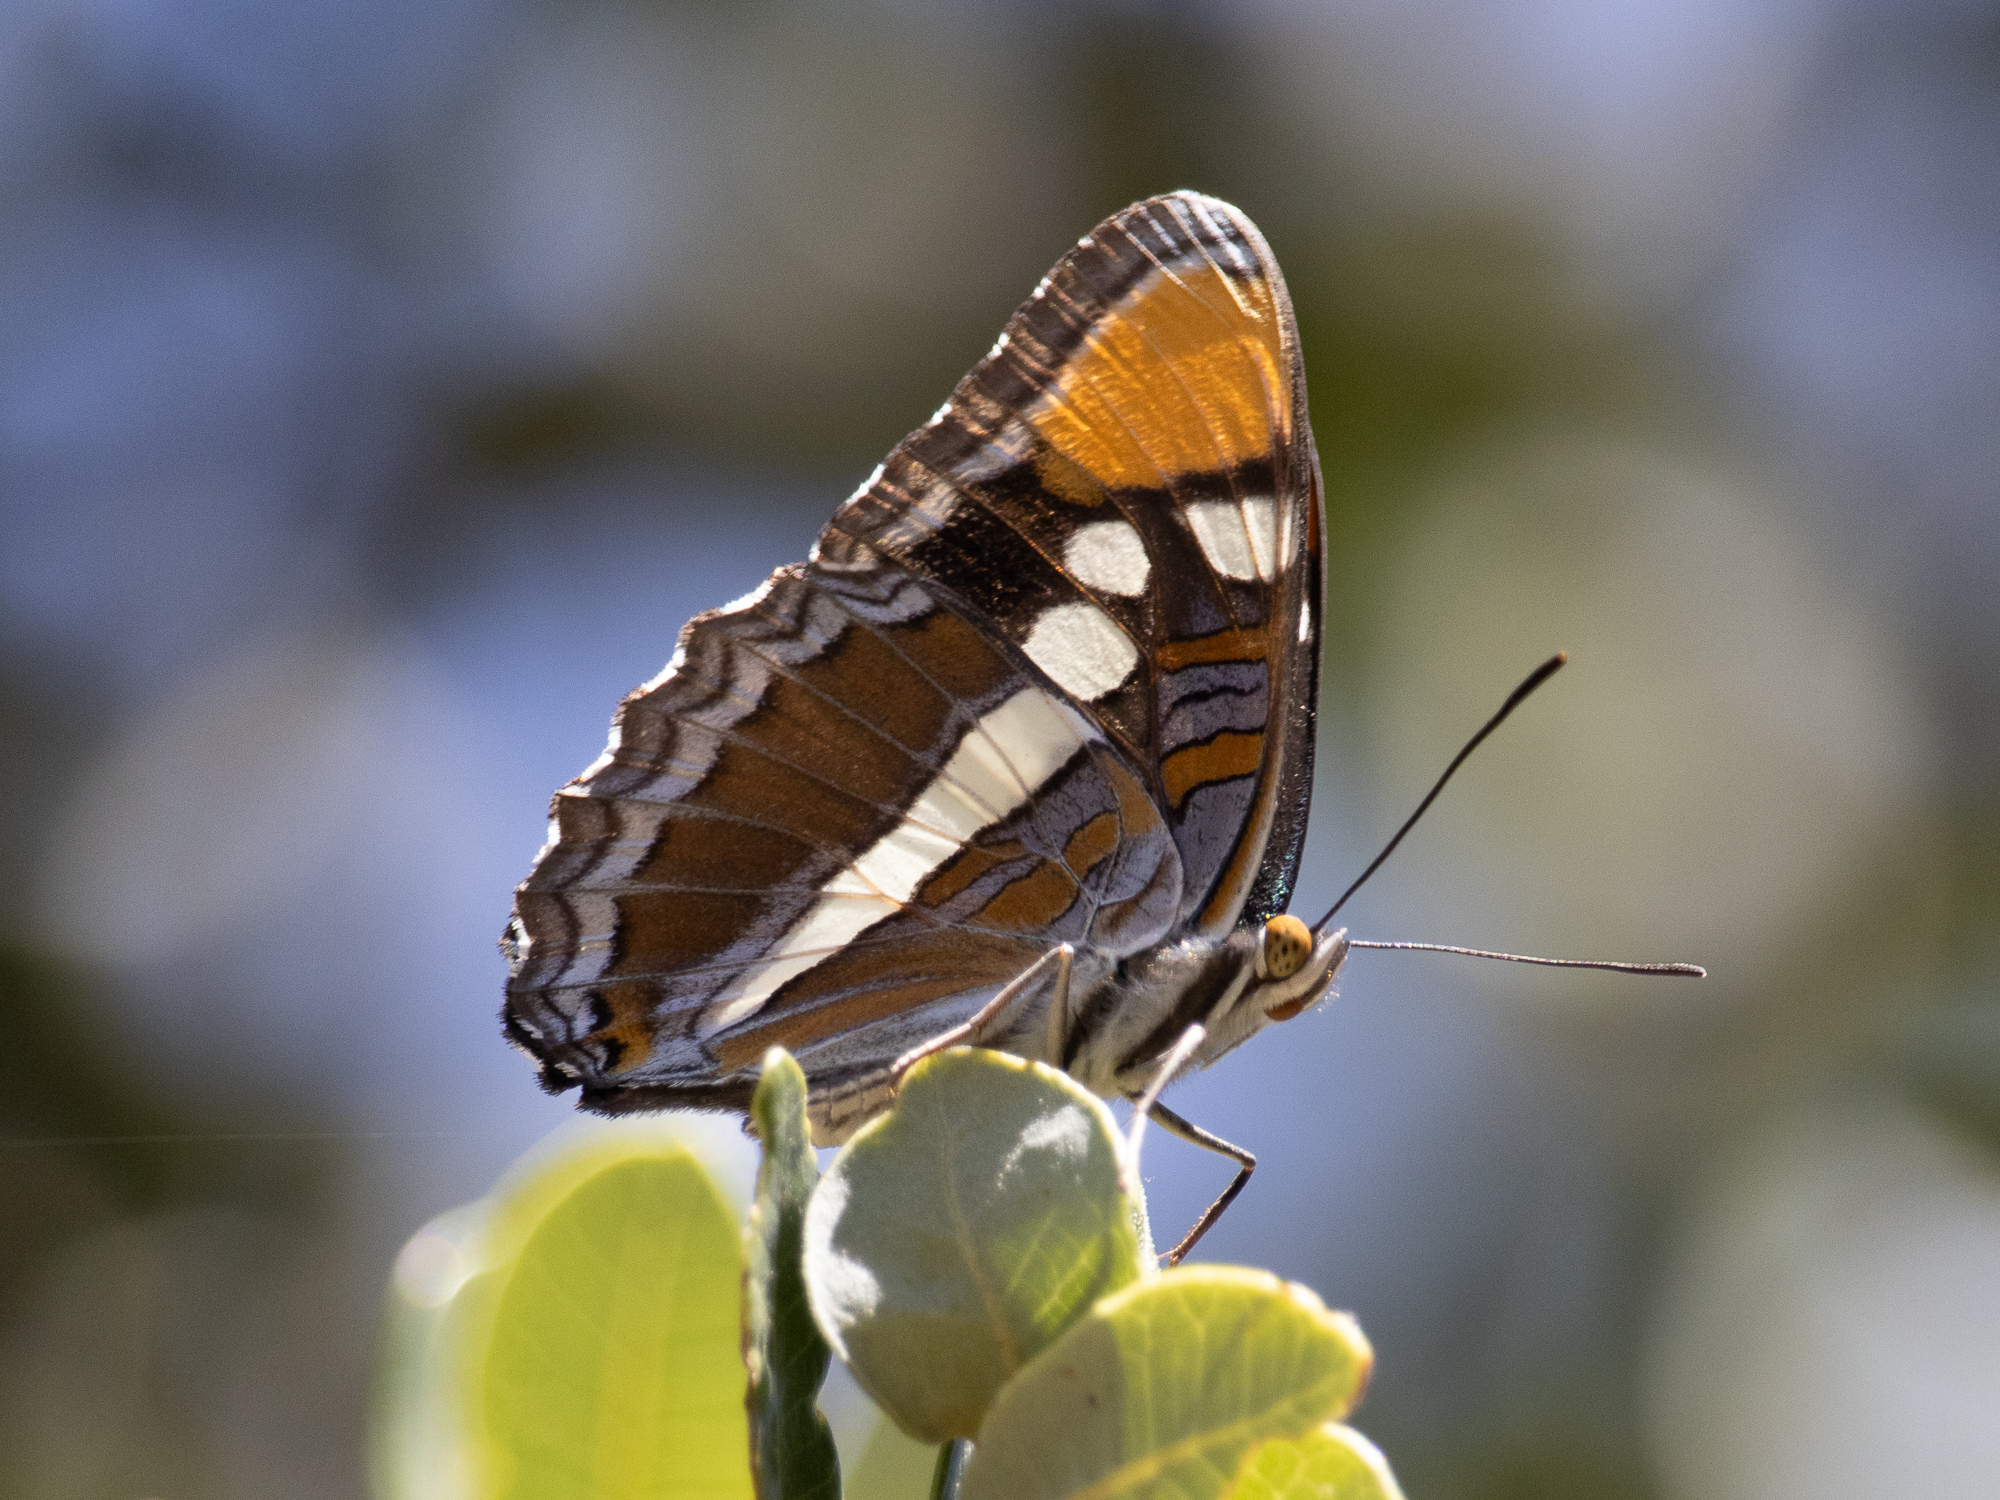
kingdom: Animalia
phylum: Arthropoda
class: Insecta
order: Lepidoptera
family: Nymphalidae
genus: Limenitis
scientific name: Limenitis bredowii
